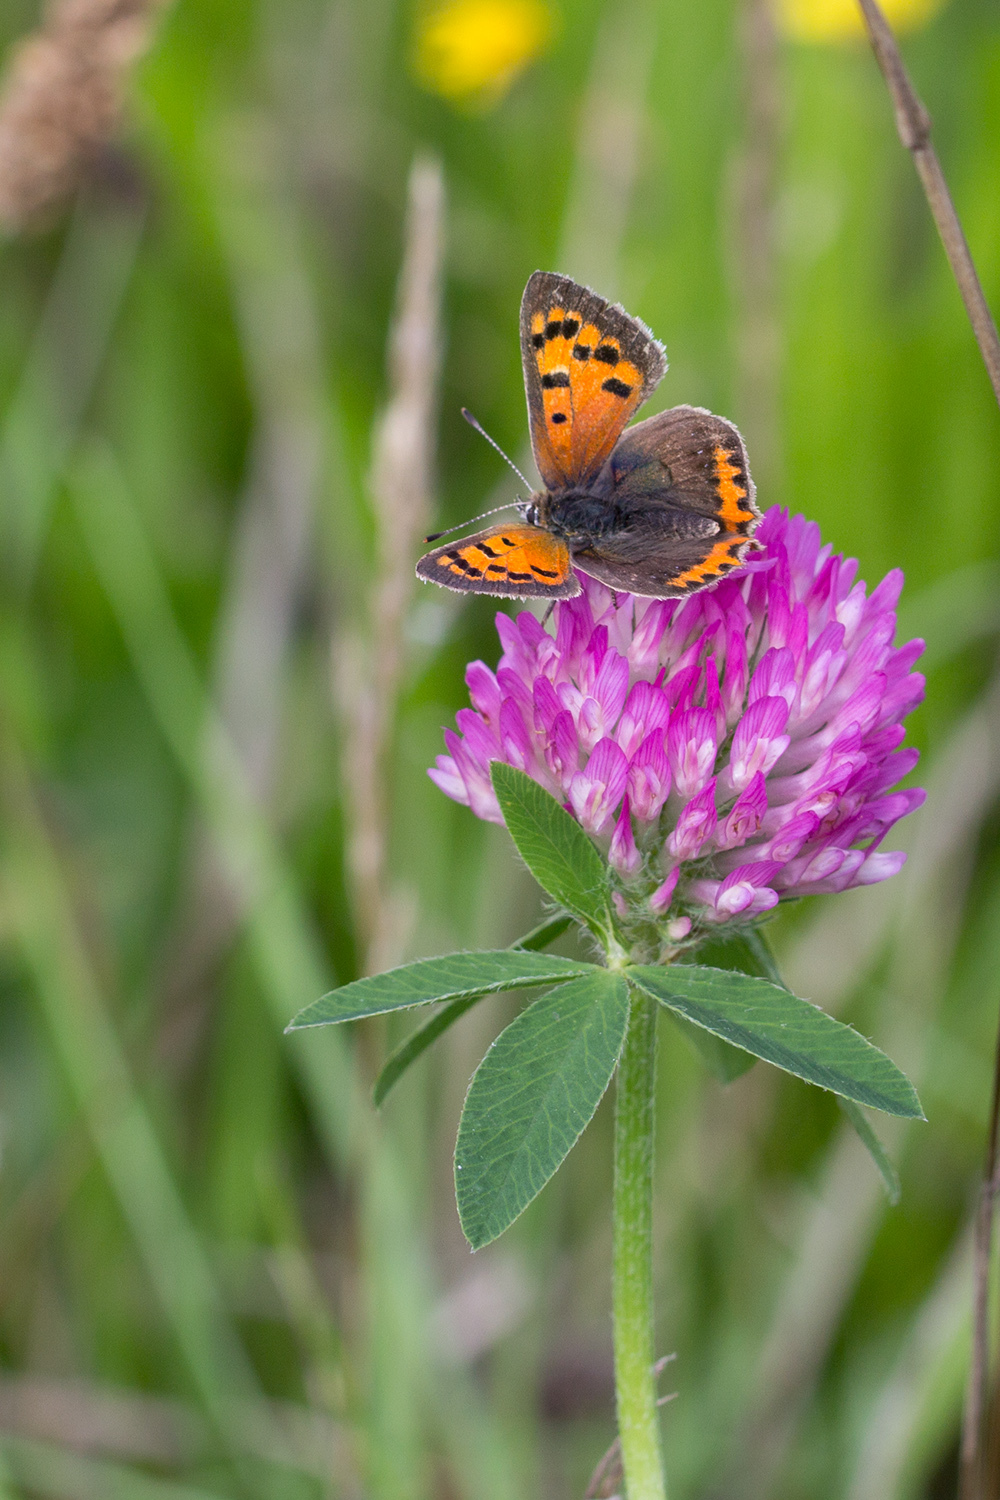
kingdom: Animalia
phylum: Arthropoda
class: Insecta
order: Lepidoptera
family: Lycaenidae
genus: Lycaena
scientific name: Lycaena phlaeas
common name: Small copper
